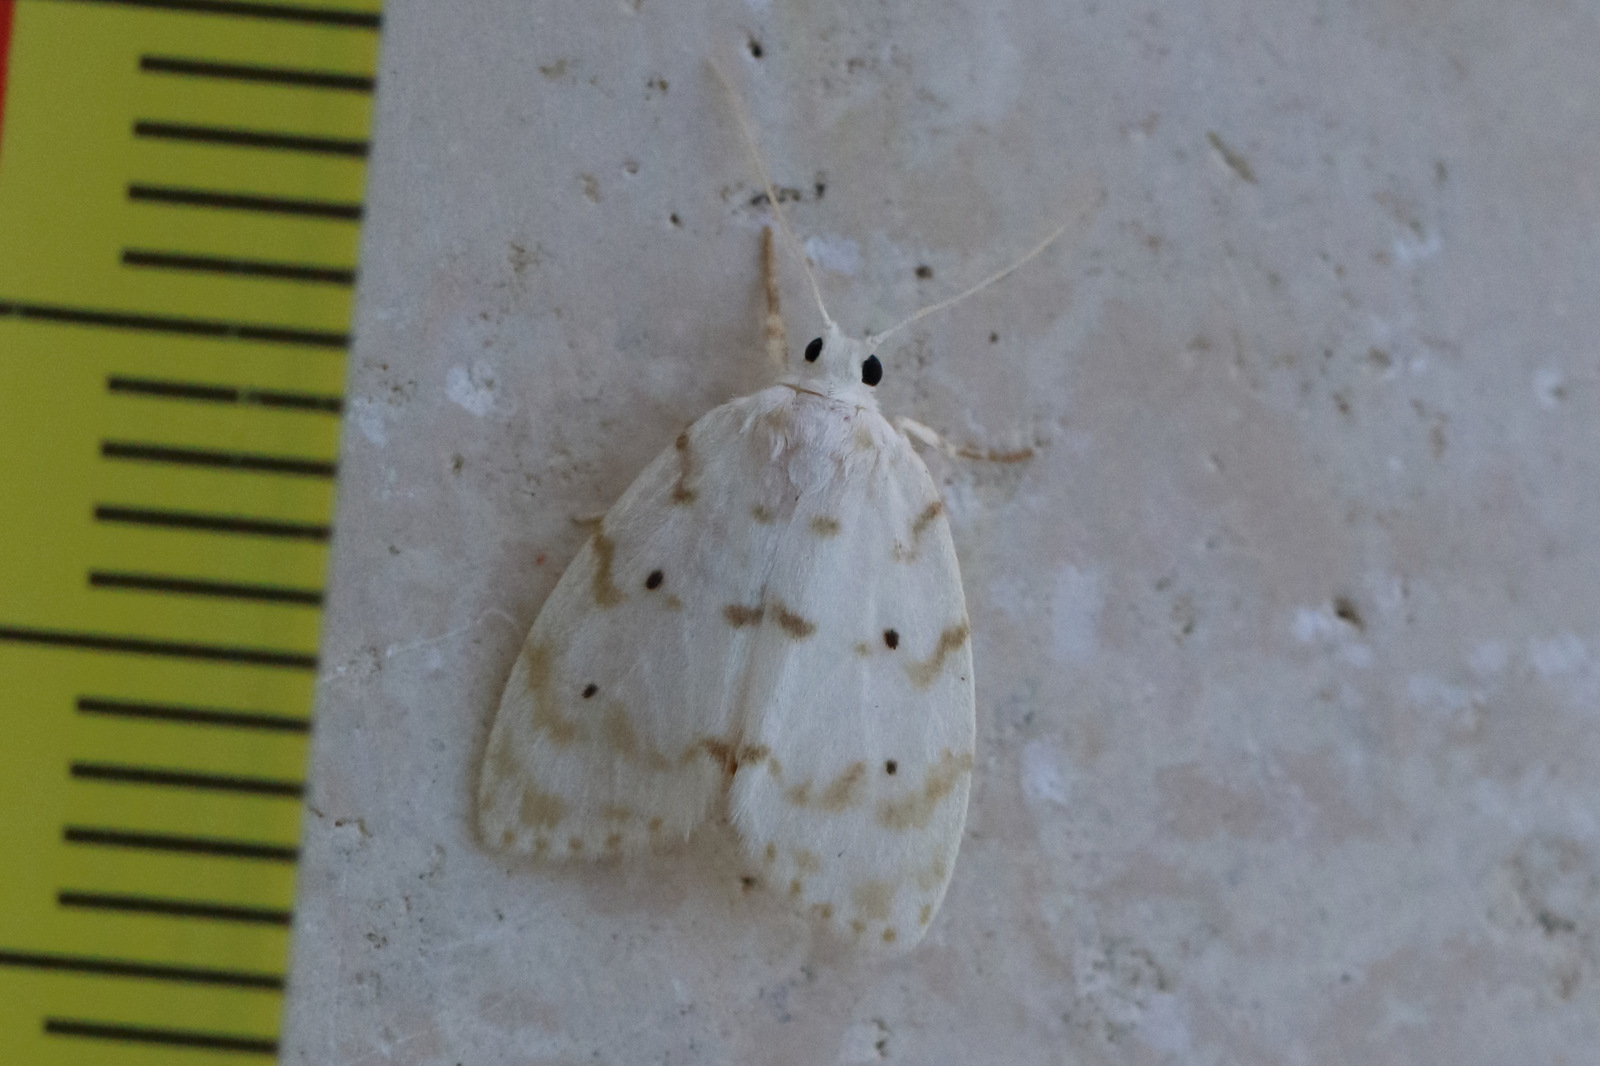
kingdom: Animalia
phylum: Arthropoda
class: Insecta
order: Lepidoptera
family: Erebidae
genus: Schistophleps
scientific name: Schistophleps albida
